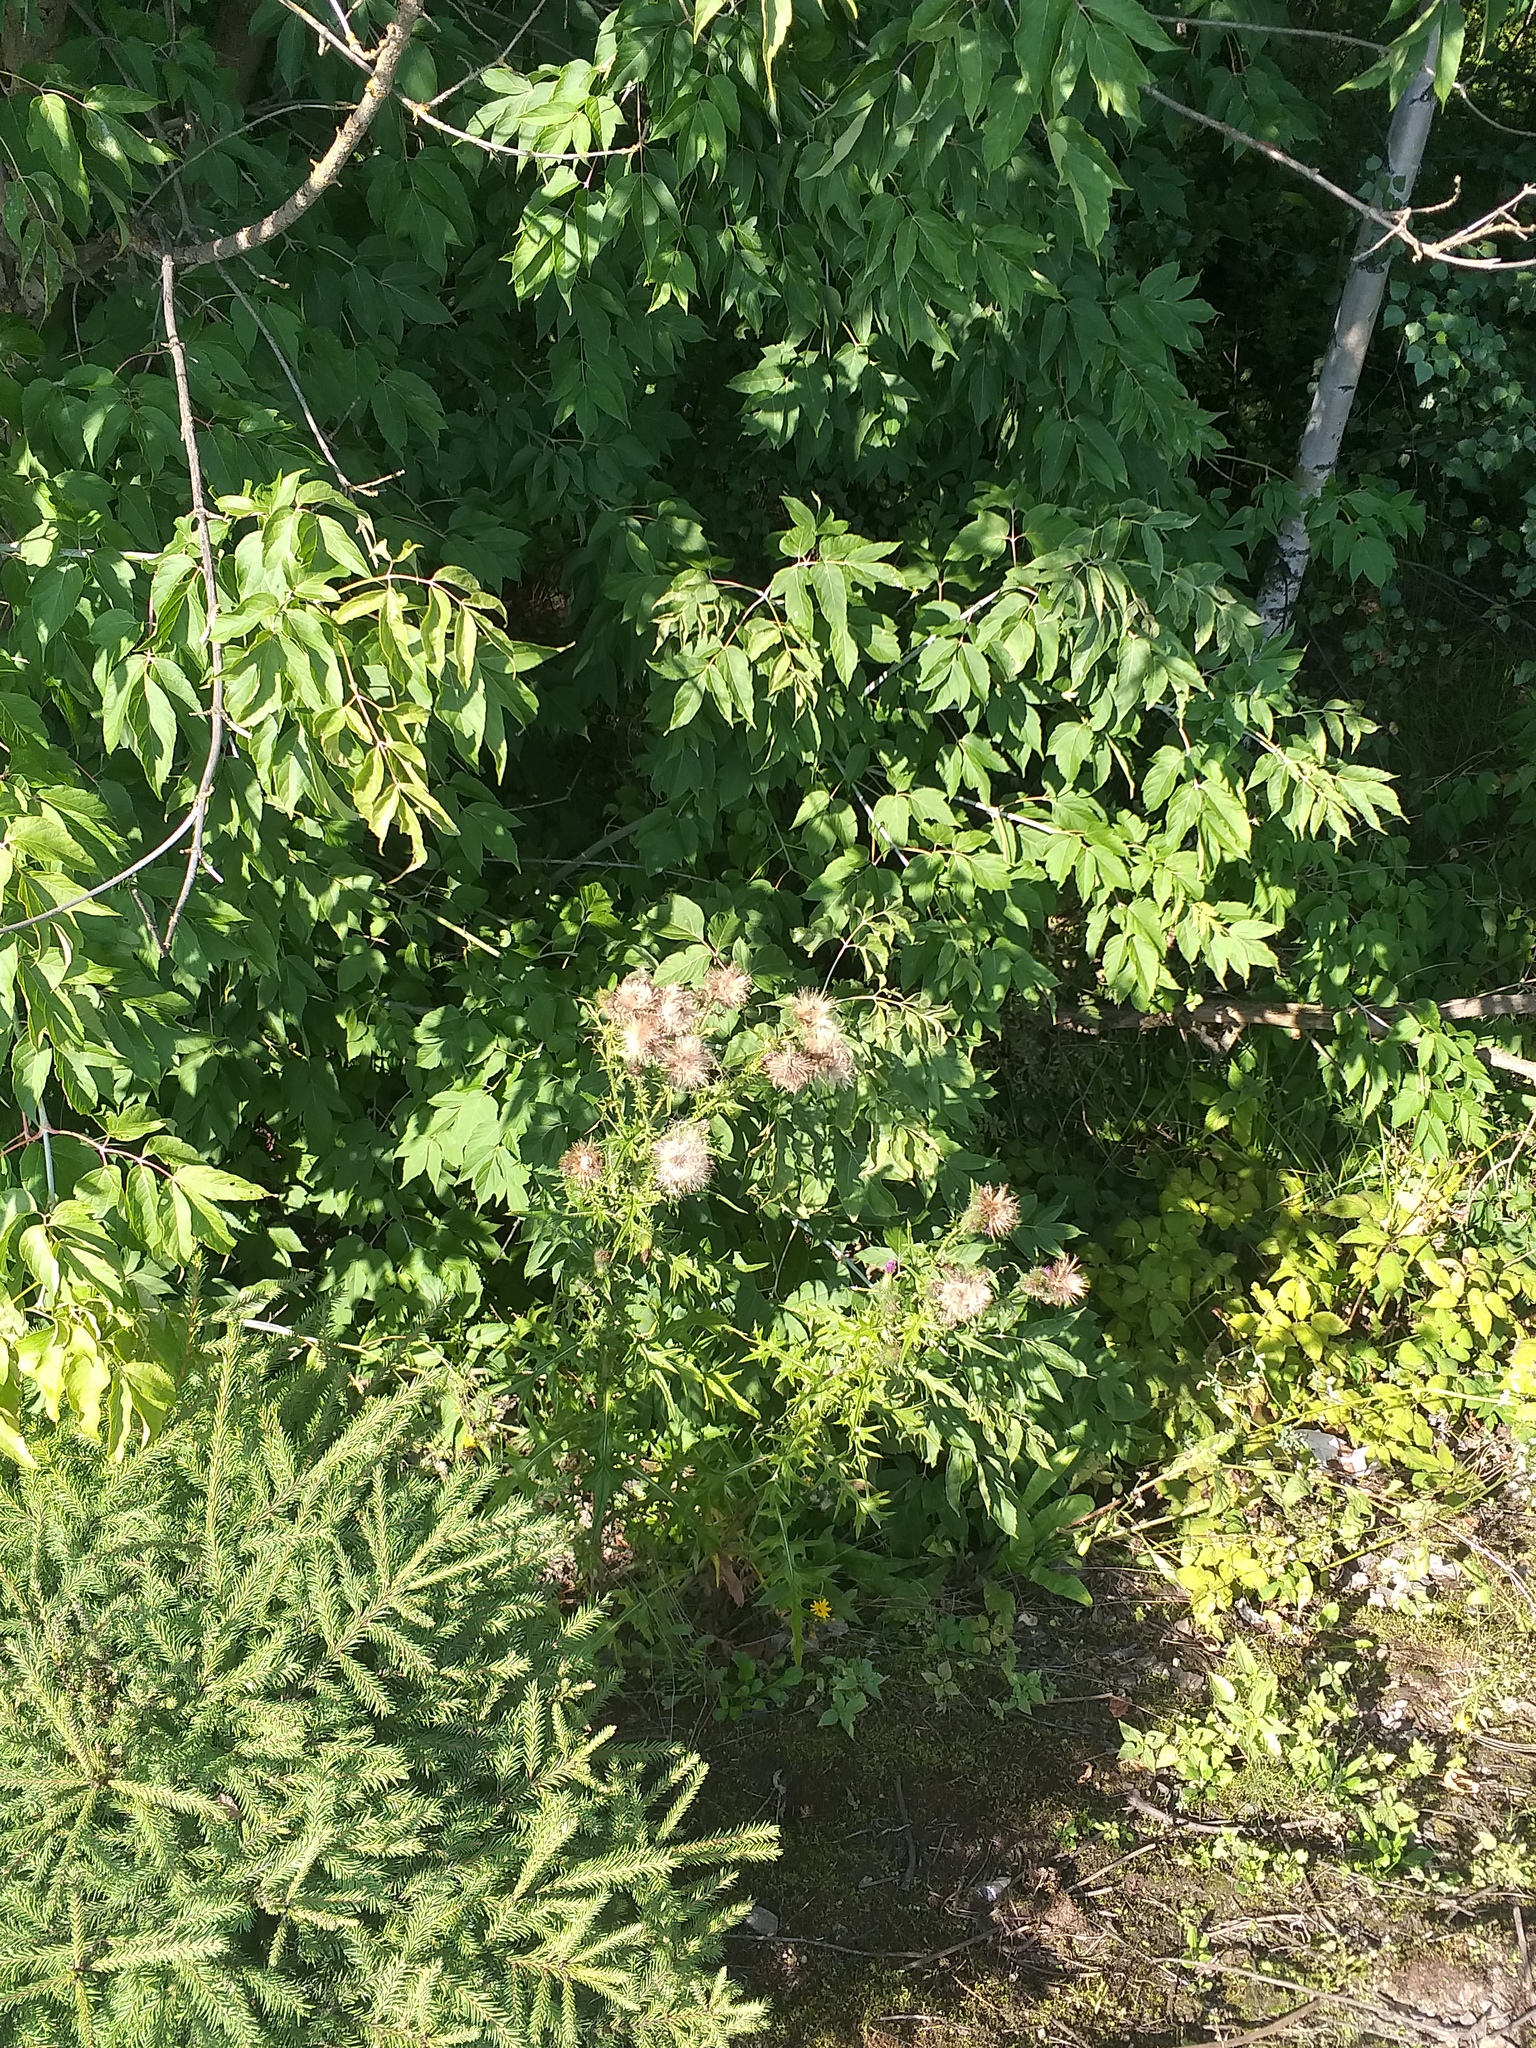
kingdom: Plantae
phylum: Tracheophyta
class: Magnoliopsida
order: Asterales
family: Asteraceae
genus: Cirsium
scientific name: Cirsium vulgare
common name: Bull thistle
